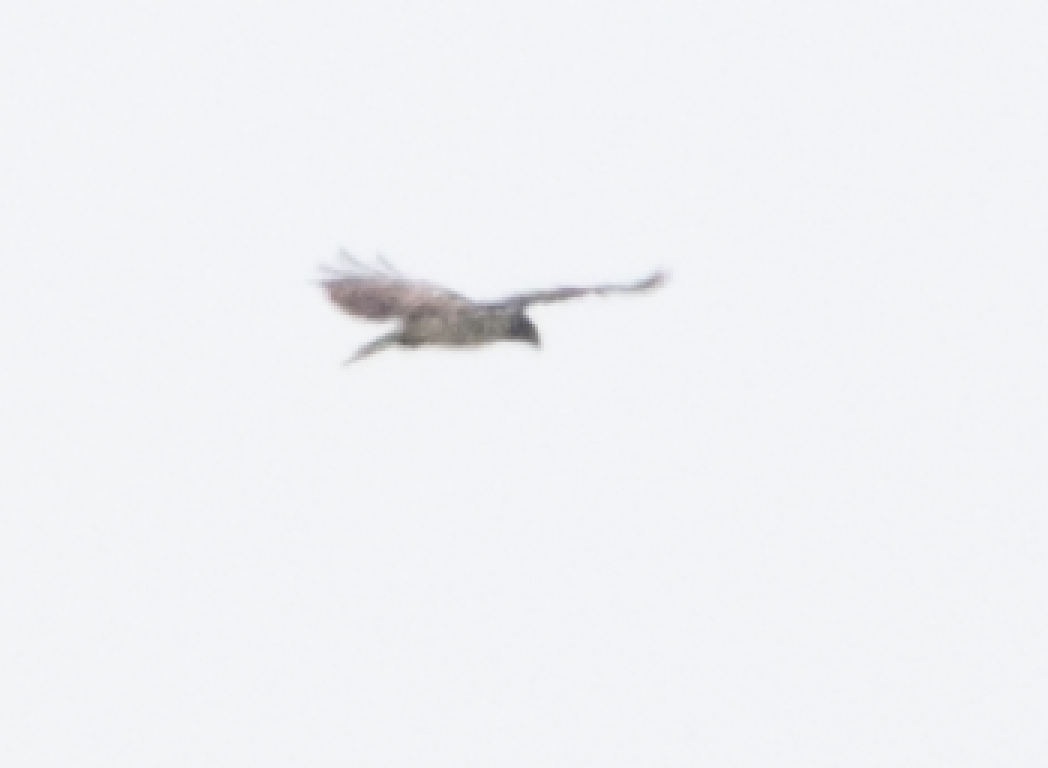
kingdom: Animalia
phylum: Chordata
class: Aves
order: Accipitriformes
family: Accipitridae
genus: Circaetus
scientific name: Circaetus gallicus
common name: Short-toed snake eagle
